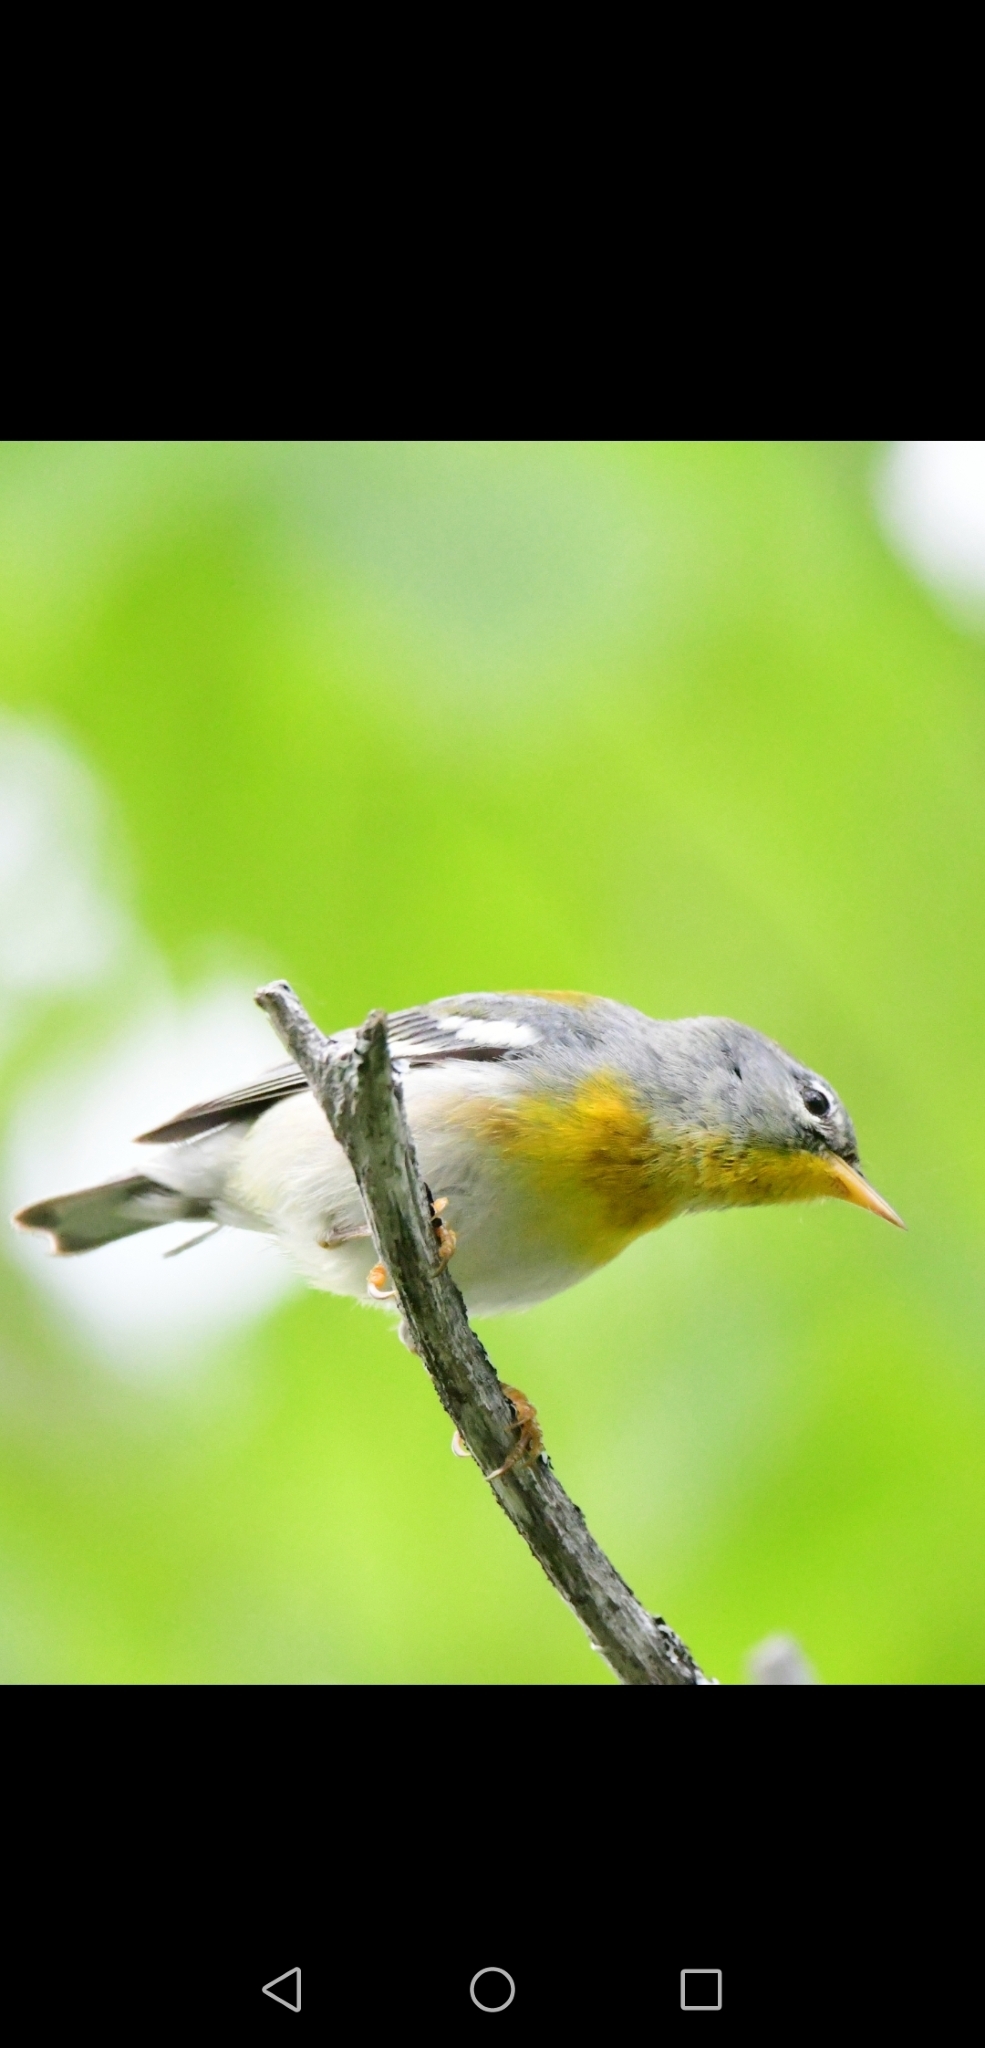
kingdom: Animalia
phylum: Chordata
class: Aves
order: Passeriformes
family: Parulidae
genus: Setophaga
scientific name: Setophaga americana
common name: Northern parula
